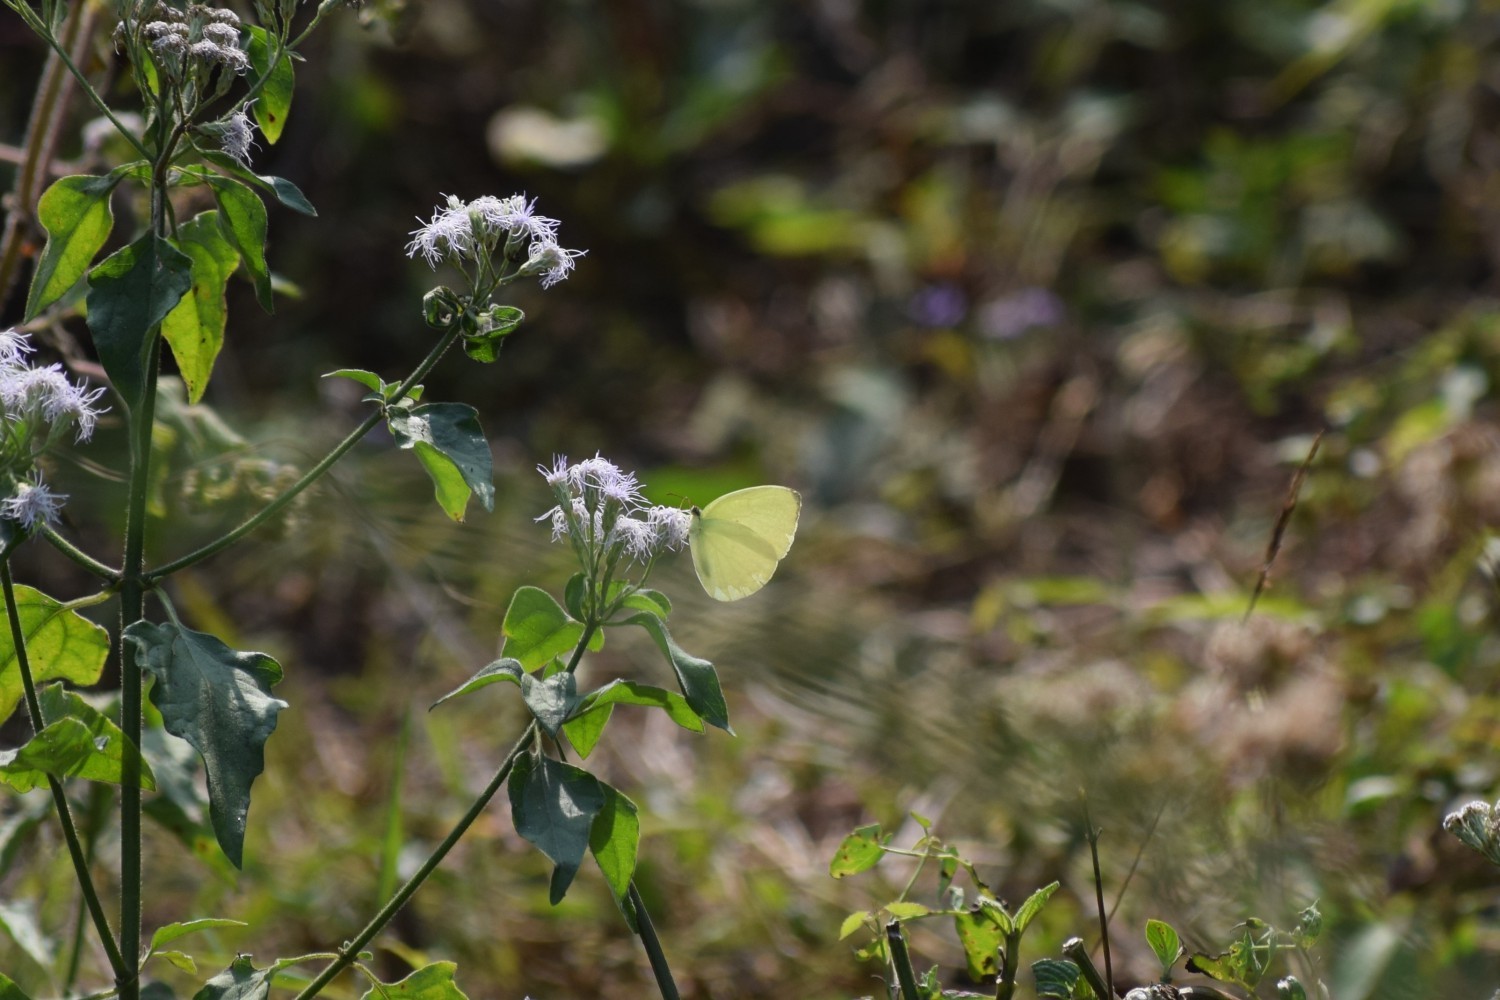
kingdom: Animalia
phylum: Arthropoda
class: Insecta
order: Lepidoptera
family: Pieridae
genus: Gandaca
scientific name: Gandaca harina
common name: Tree yellow
